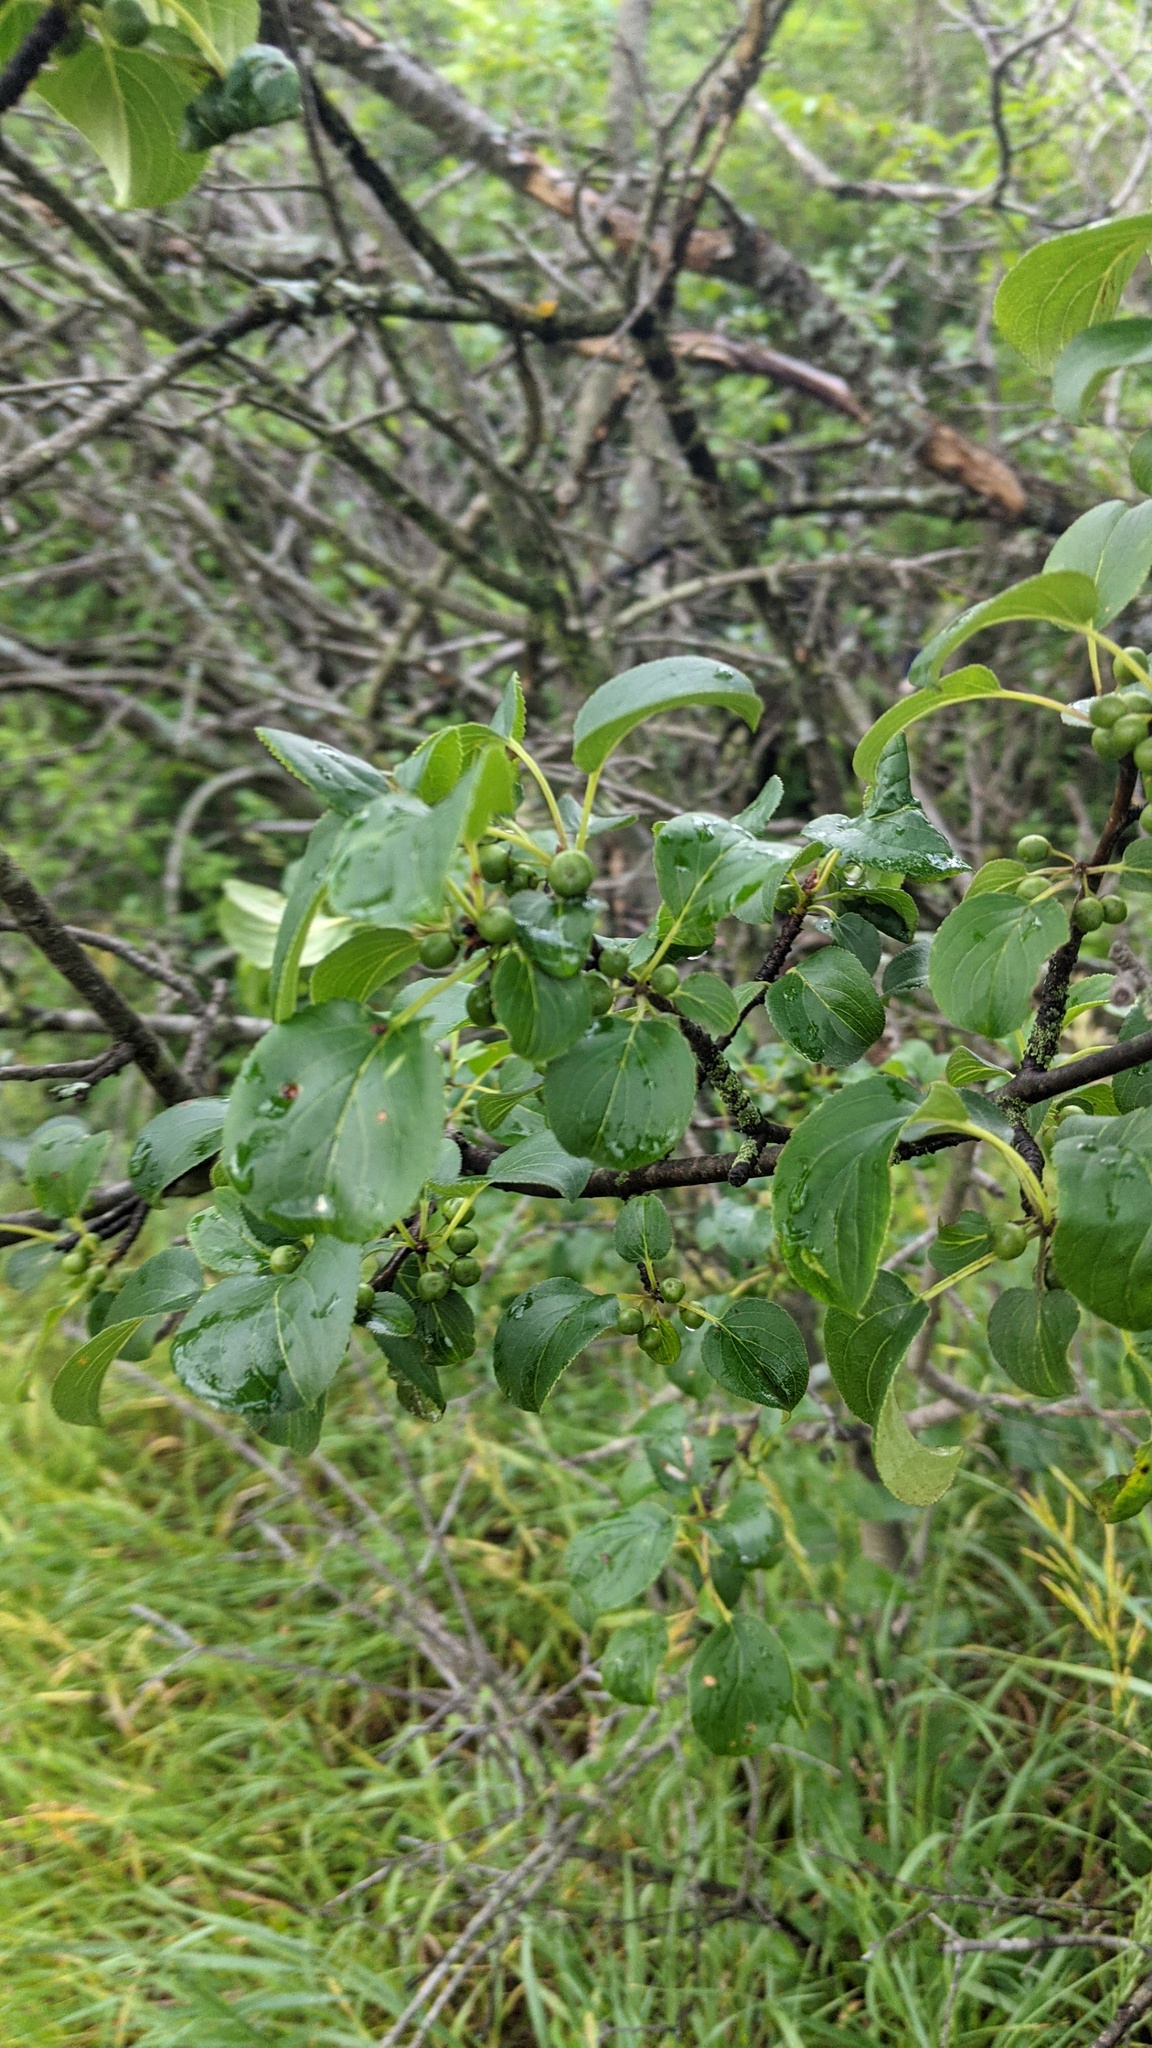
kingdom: Plantae
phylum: Tracheophyta
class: Magnoliopsida
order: Rosales
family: Rhamnaceae
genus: Rhamnus
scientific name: Rhamnus cathartica
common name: Common buckthorn
